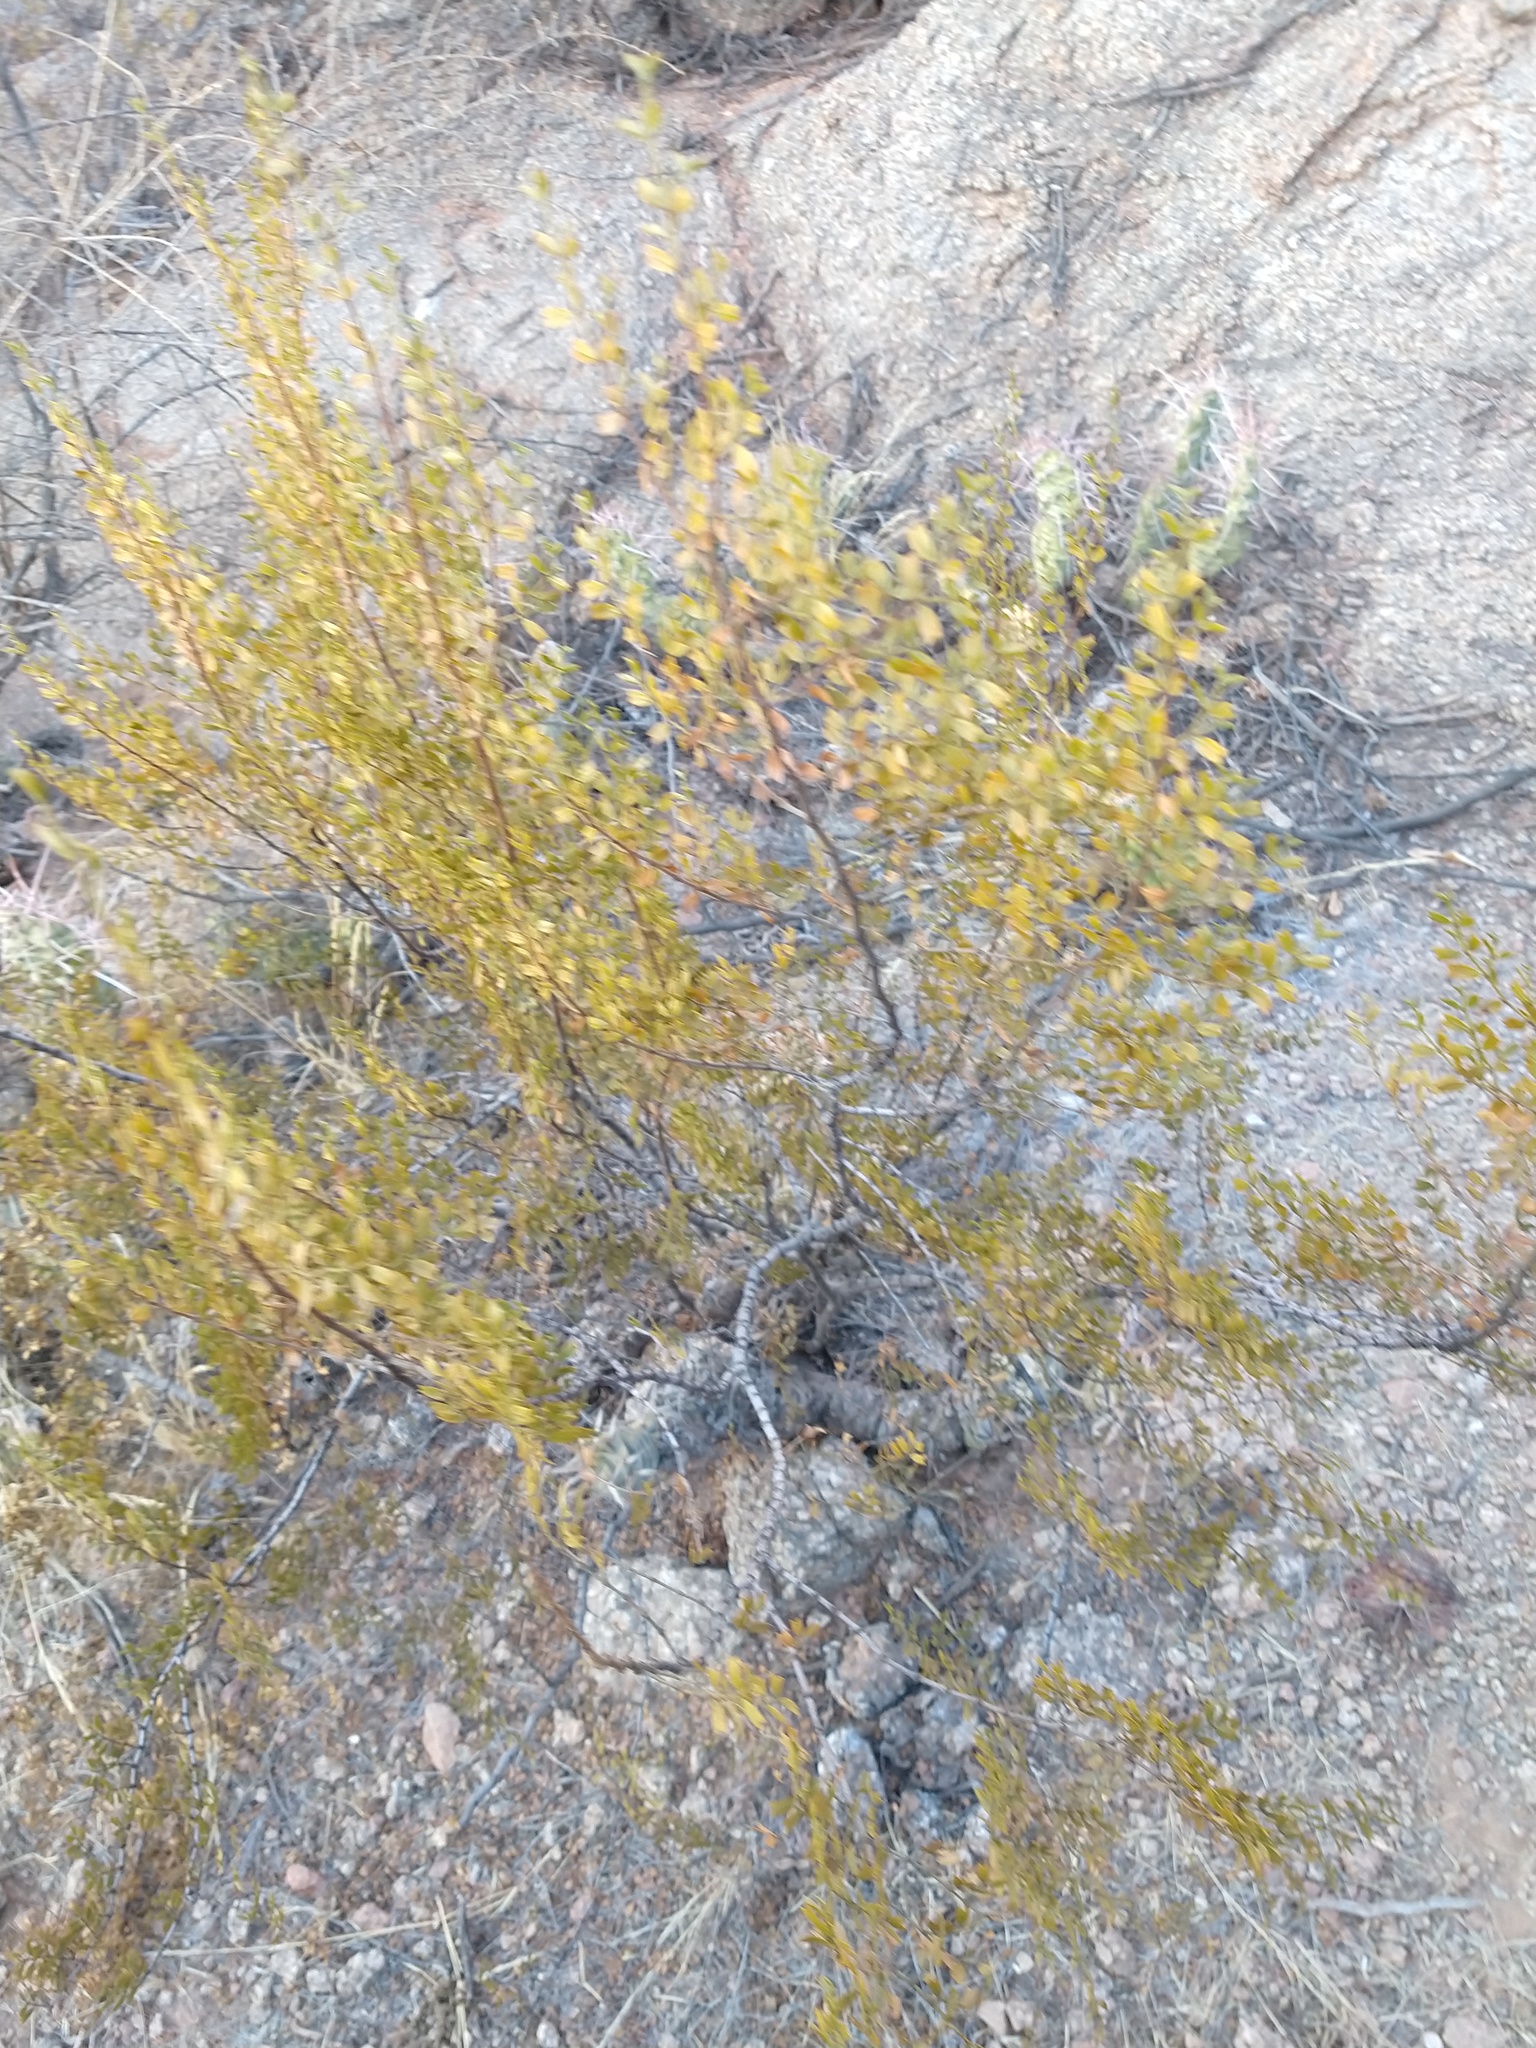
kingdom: Plantae
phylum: Tracheophyta
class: Magnoliopsida
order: Zygophyllales
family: Zygophyllaceae
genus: Larrea
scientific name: Larrea cuneifolia
